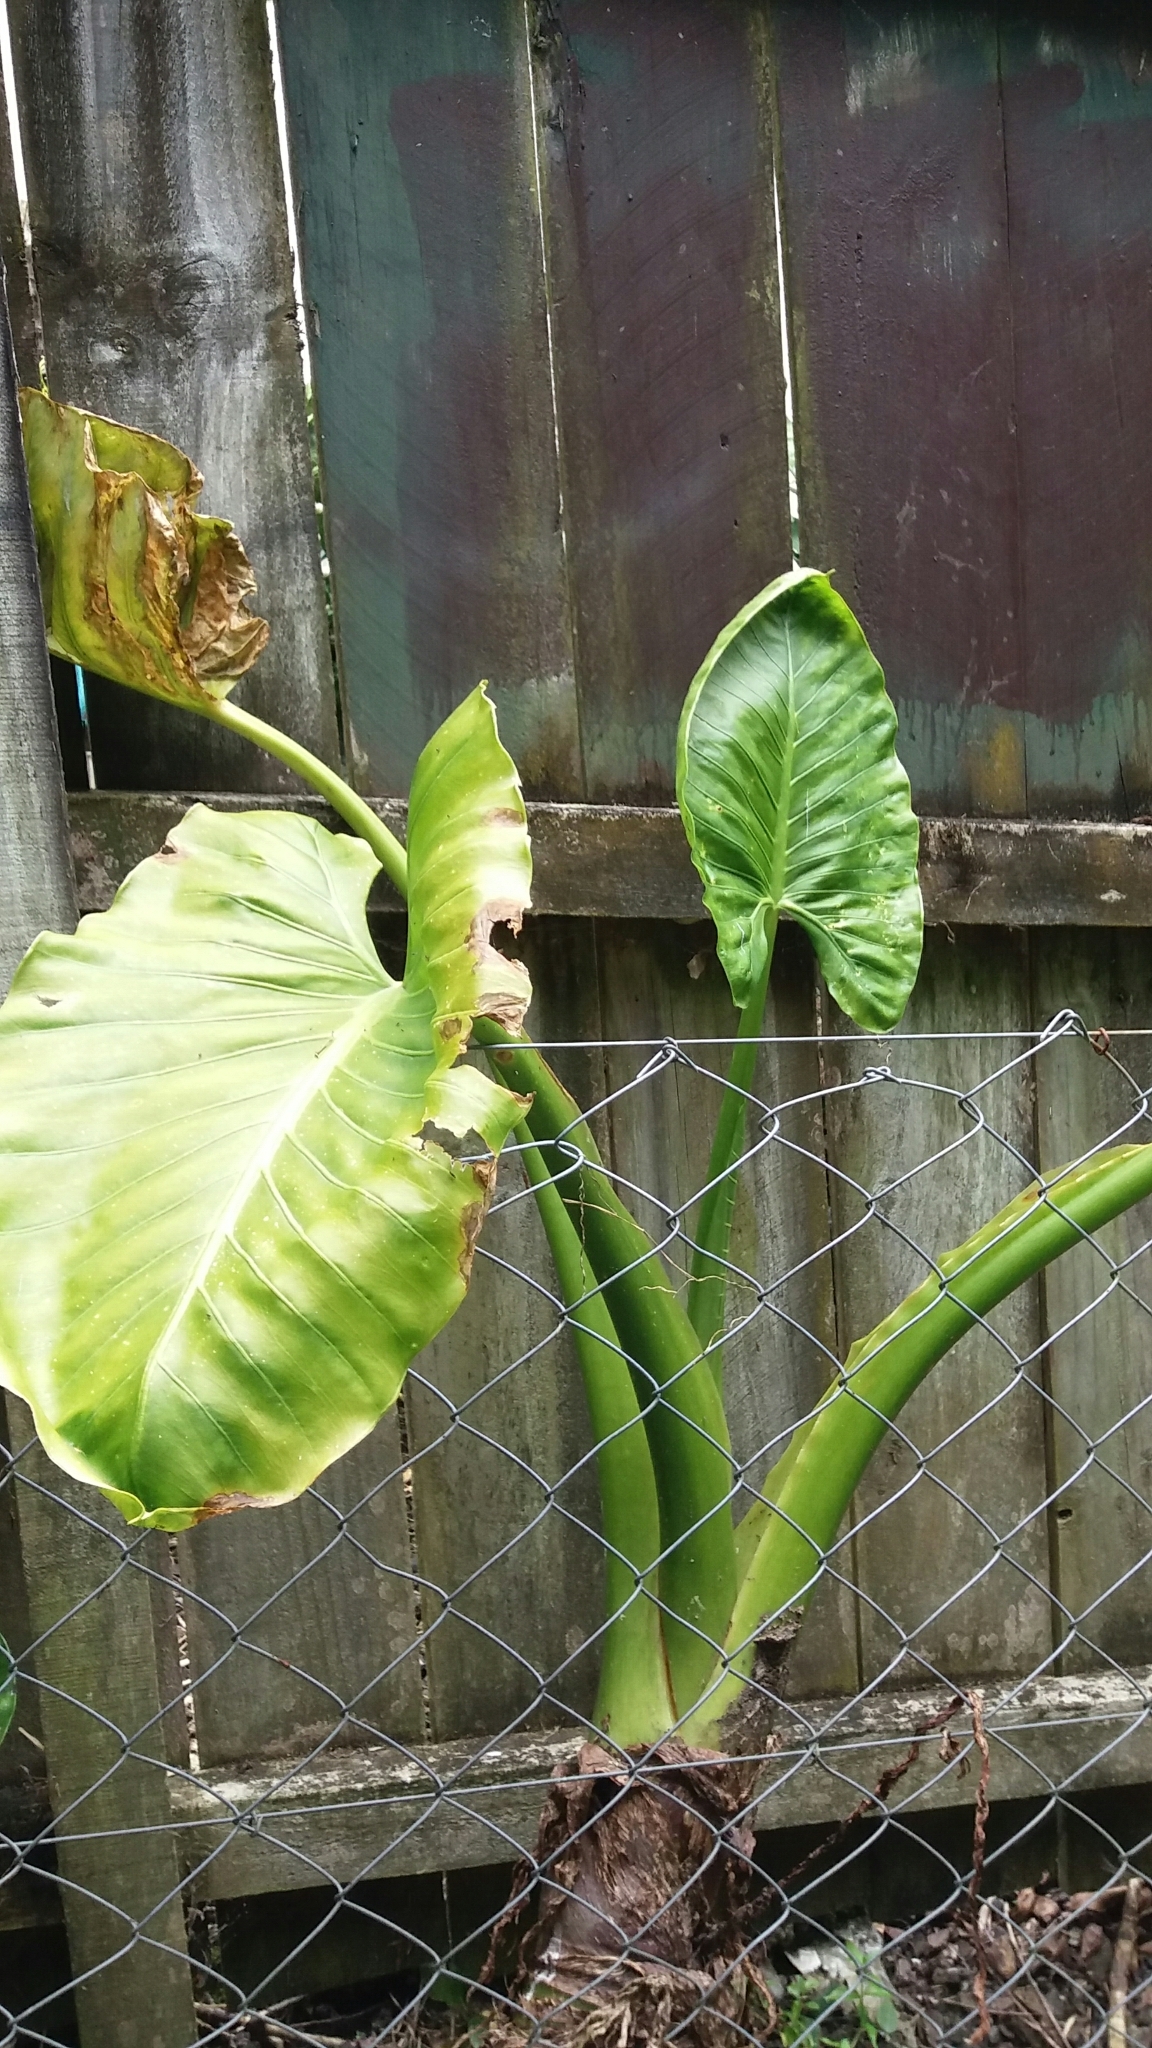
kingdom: Plantae
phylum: Tracheophyta
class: Liliopsida
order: Alismatales
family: Araceae
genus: Alocasia
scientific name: Alocasia brisbanensis
